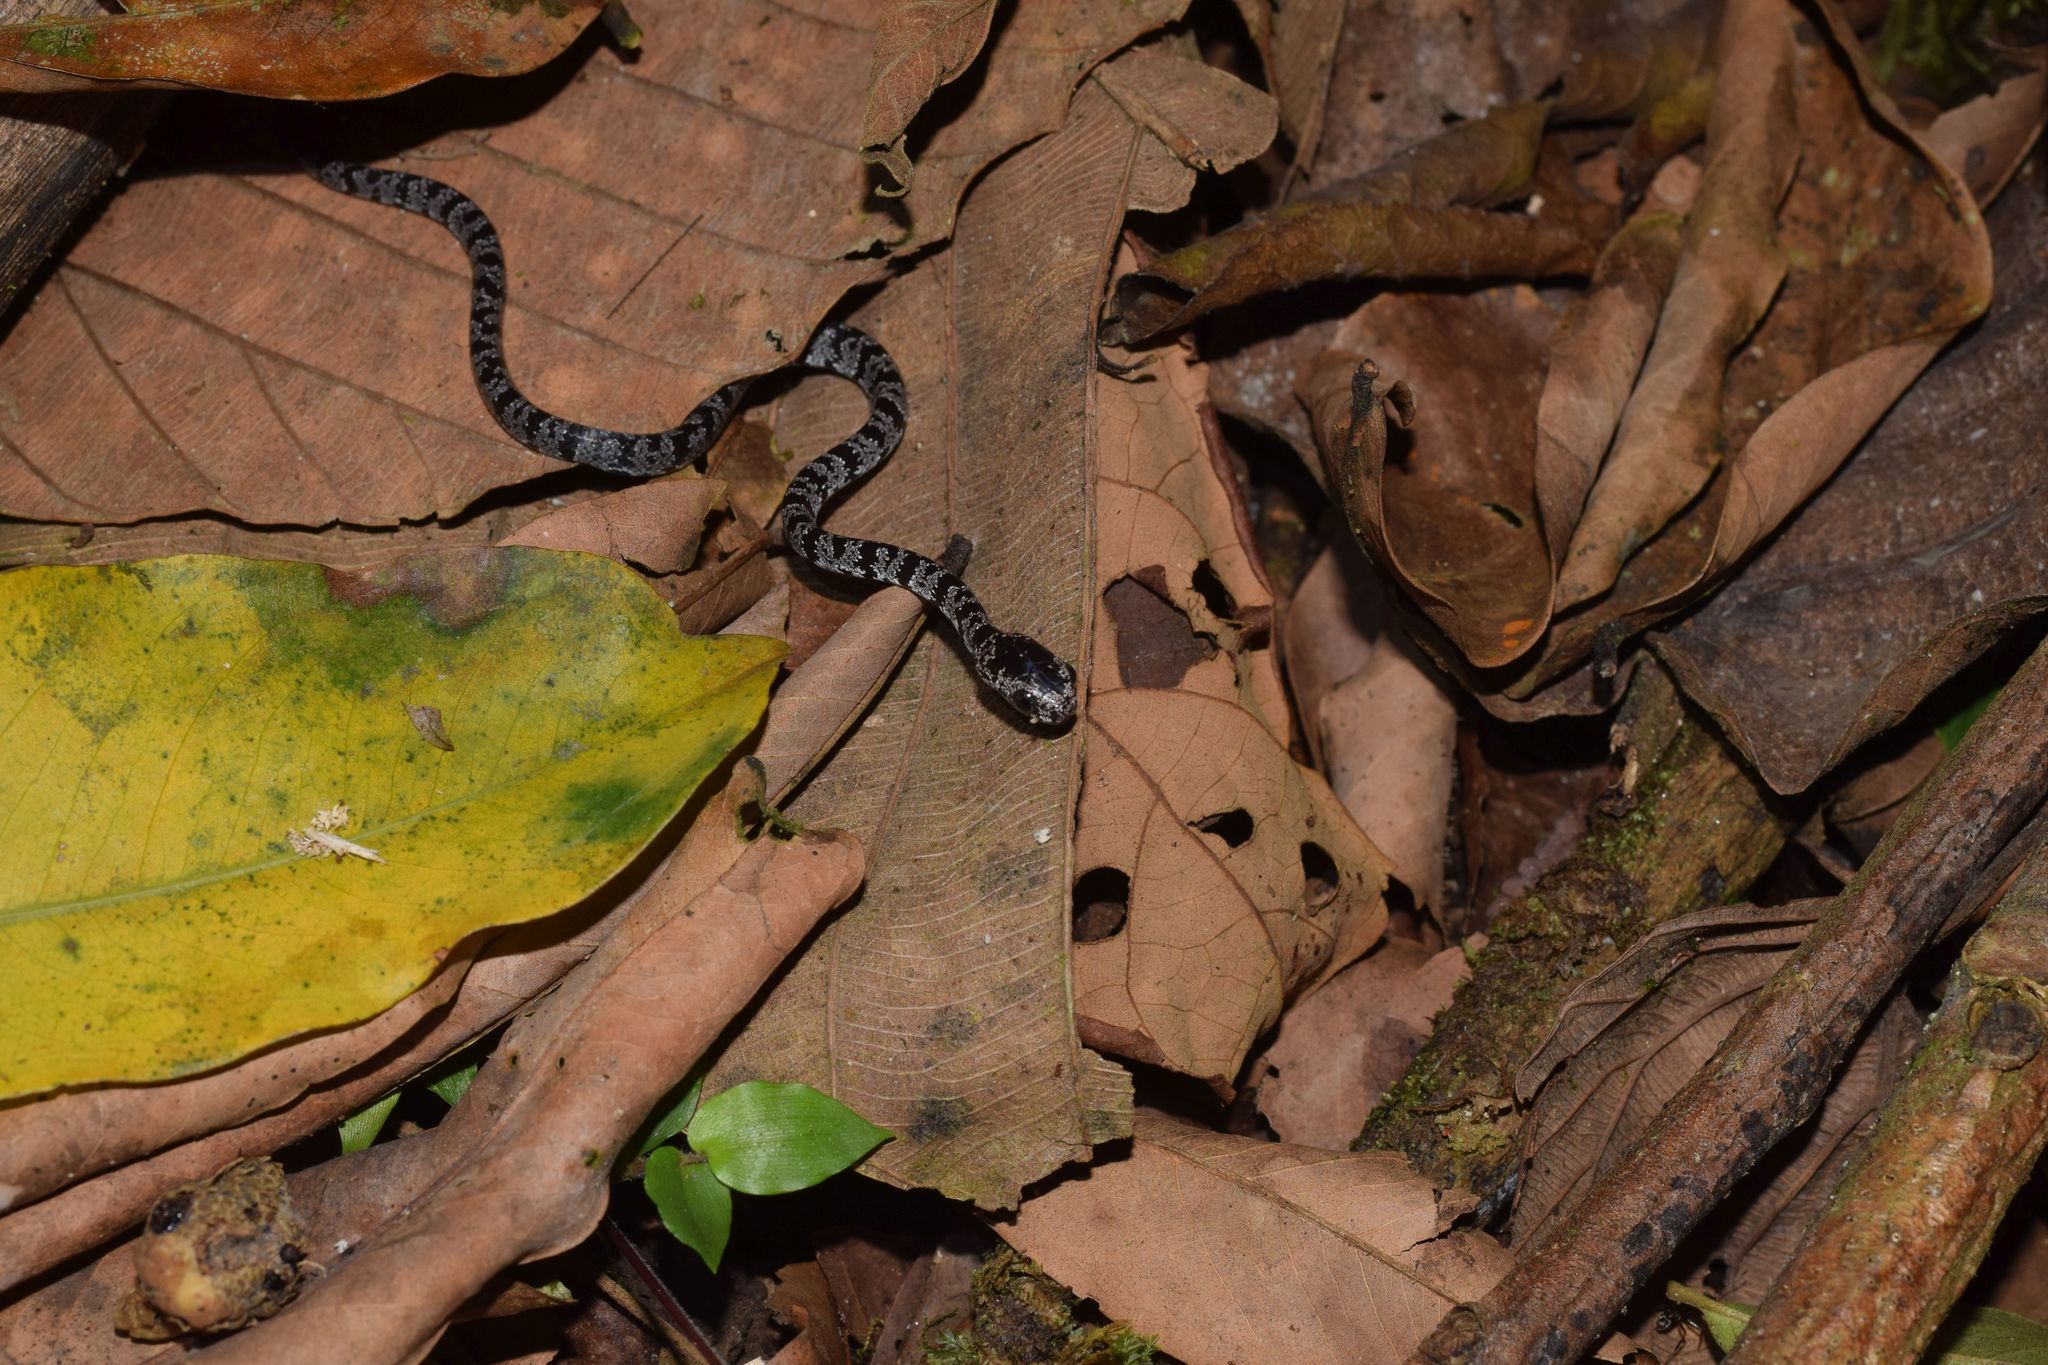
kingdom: Animalia
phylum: Chordata
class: Squamata
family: Colubridae
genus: Sibon
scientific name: Sibon nebulatus
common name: Cloudy snail-eating snake
